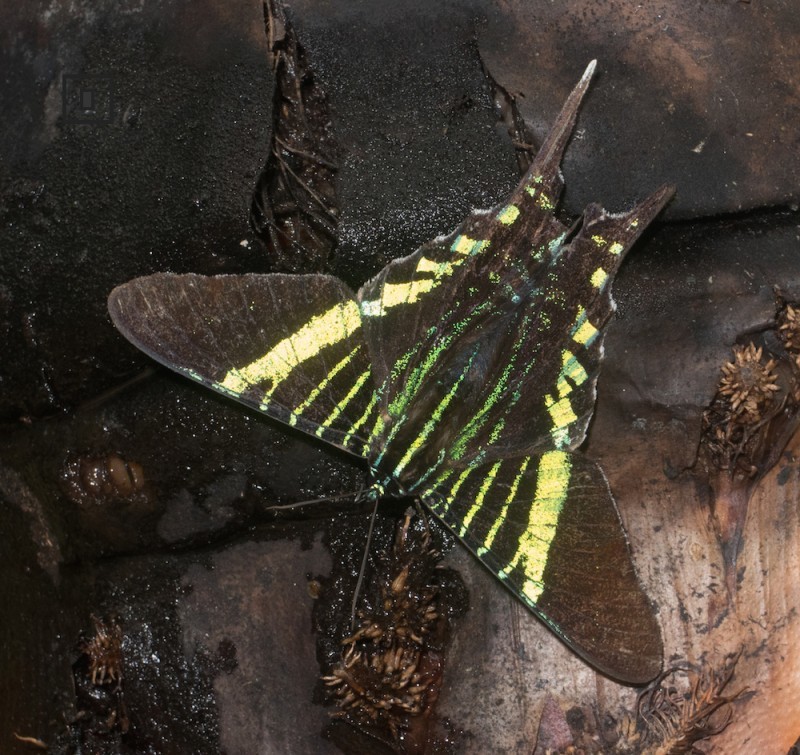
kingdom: Animalia
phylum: Arthropoda
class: Insecta
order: Lepidoptera
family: Uraniidae
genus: Urania
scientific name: Urania fulgens
